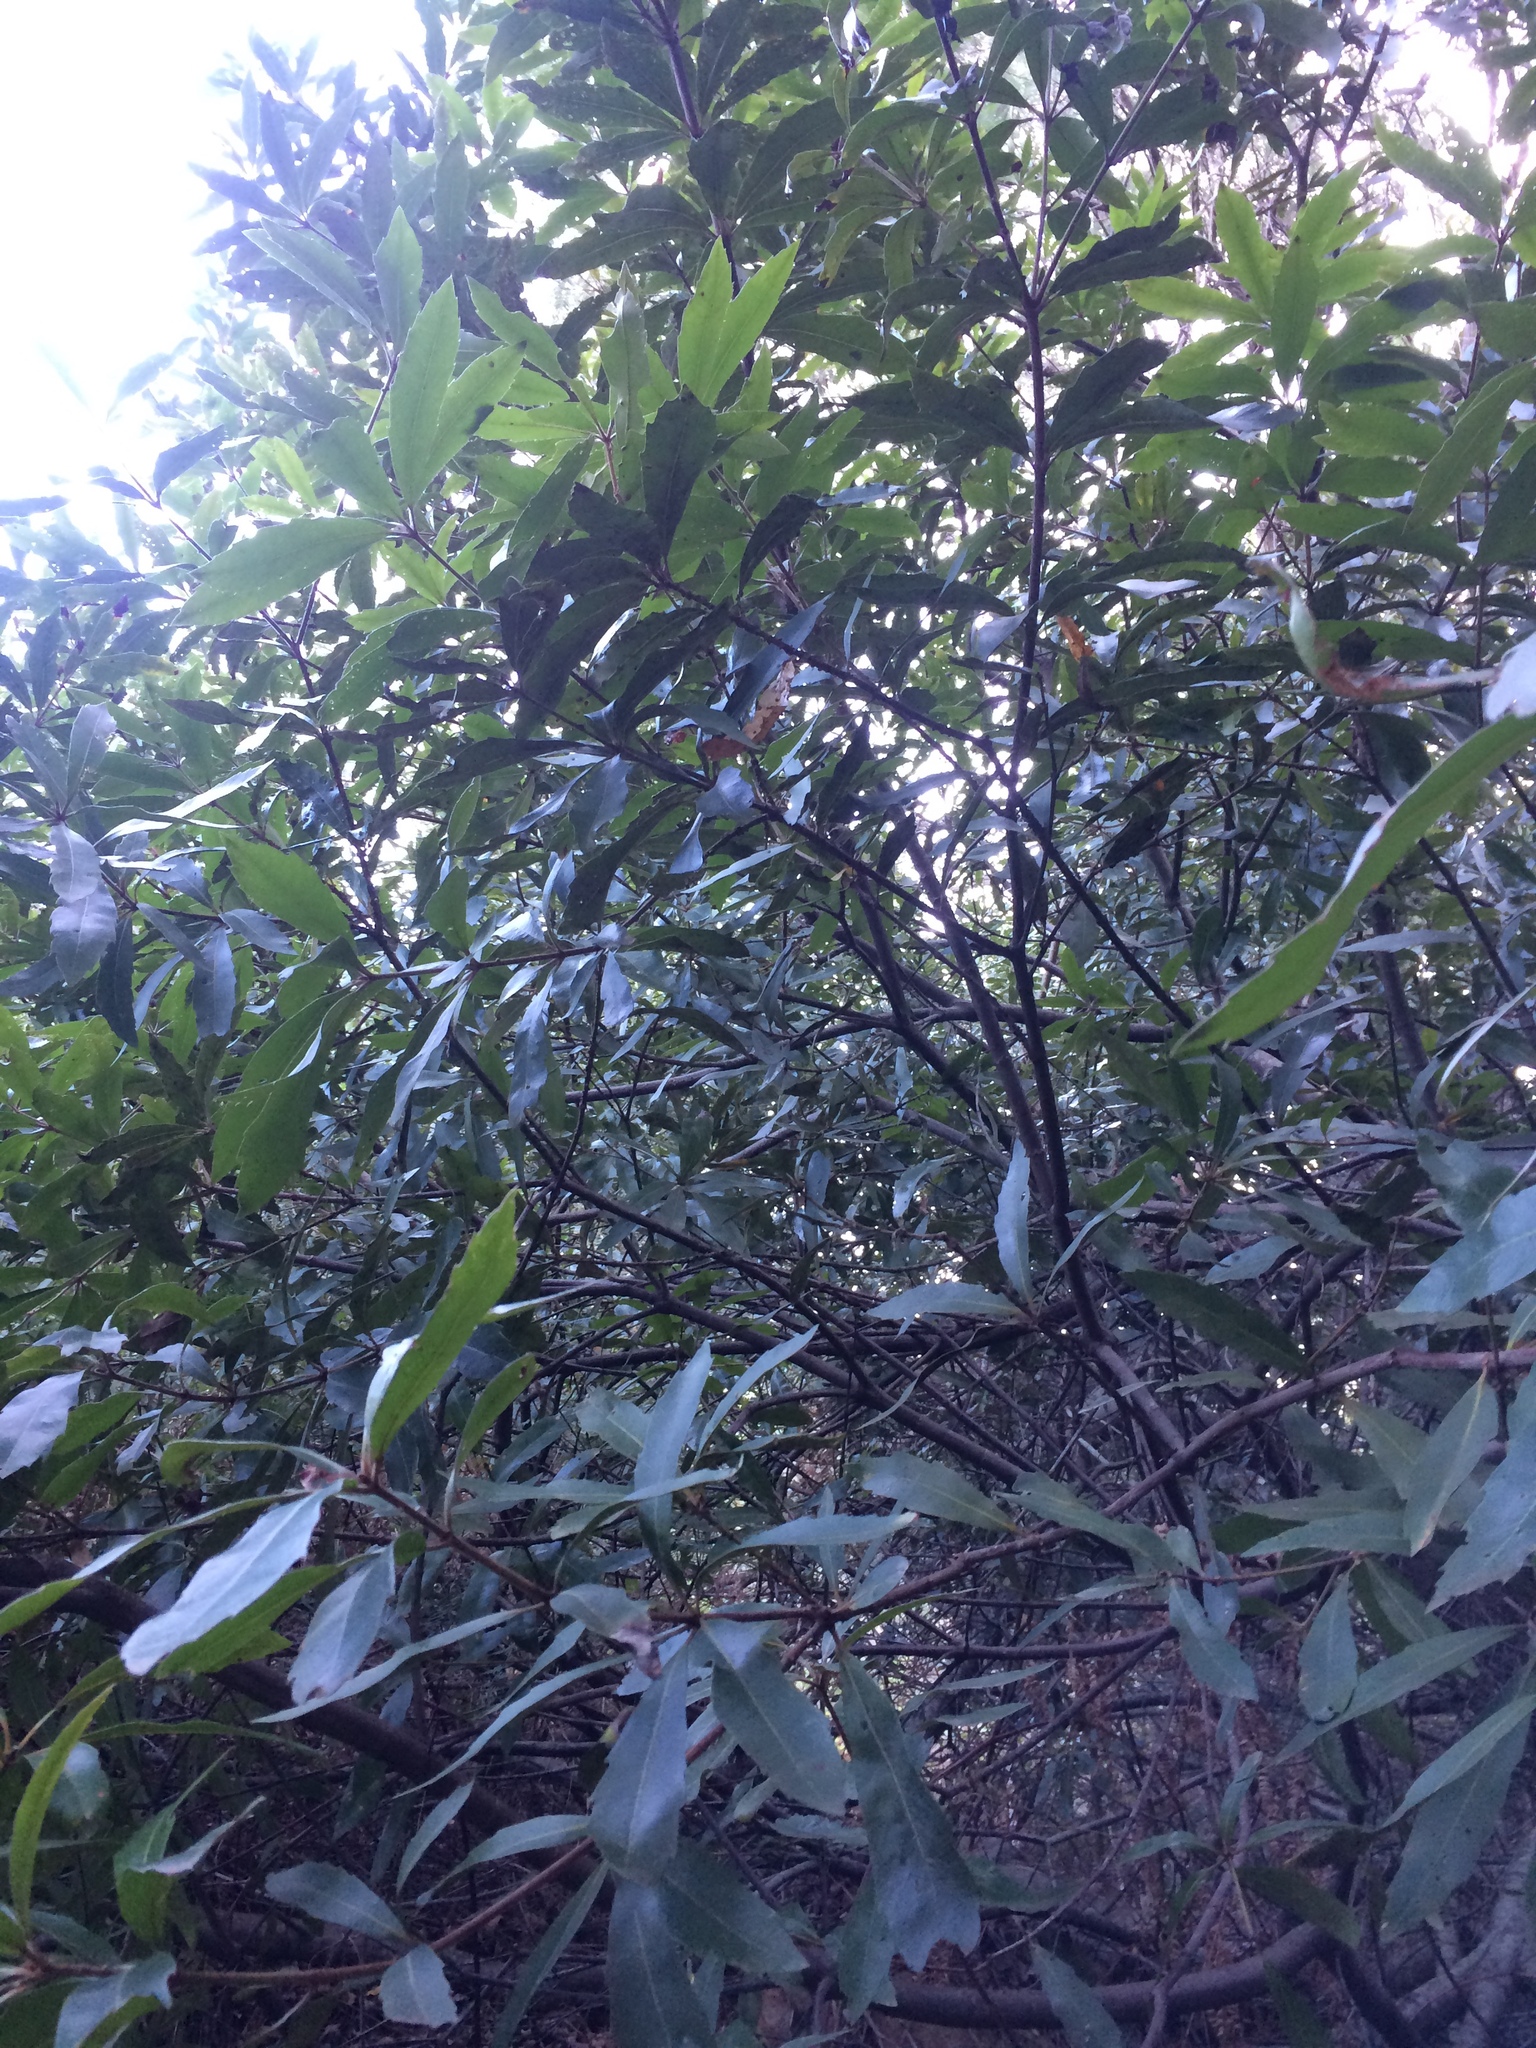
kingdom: Plantae
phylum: Tracheophyta
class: Magnoliopsida
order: Proteales
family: Proteaceae
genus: Brabejum
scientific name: Brabejum stellatifolium
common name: Wild almond
